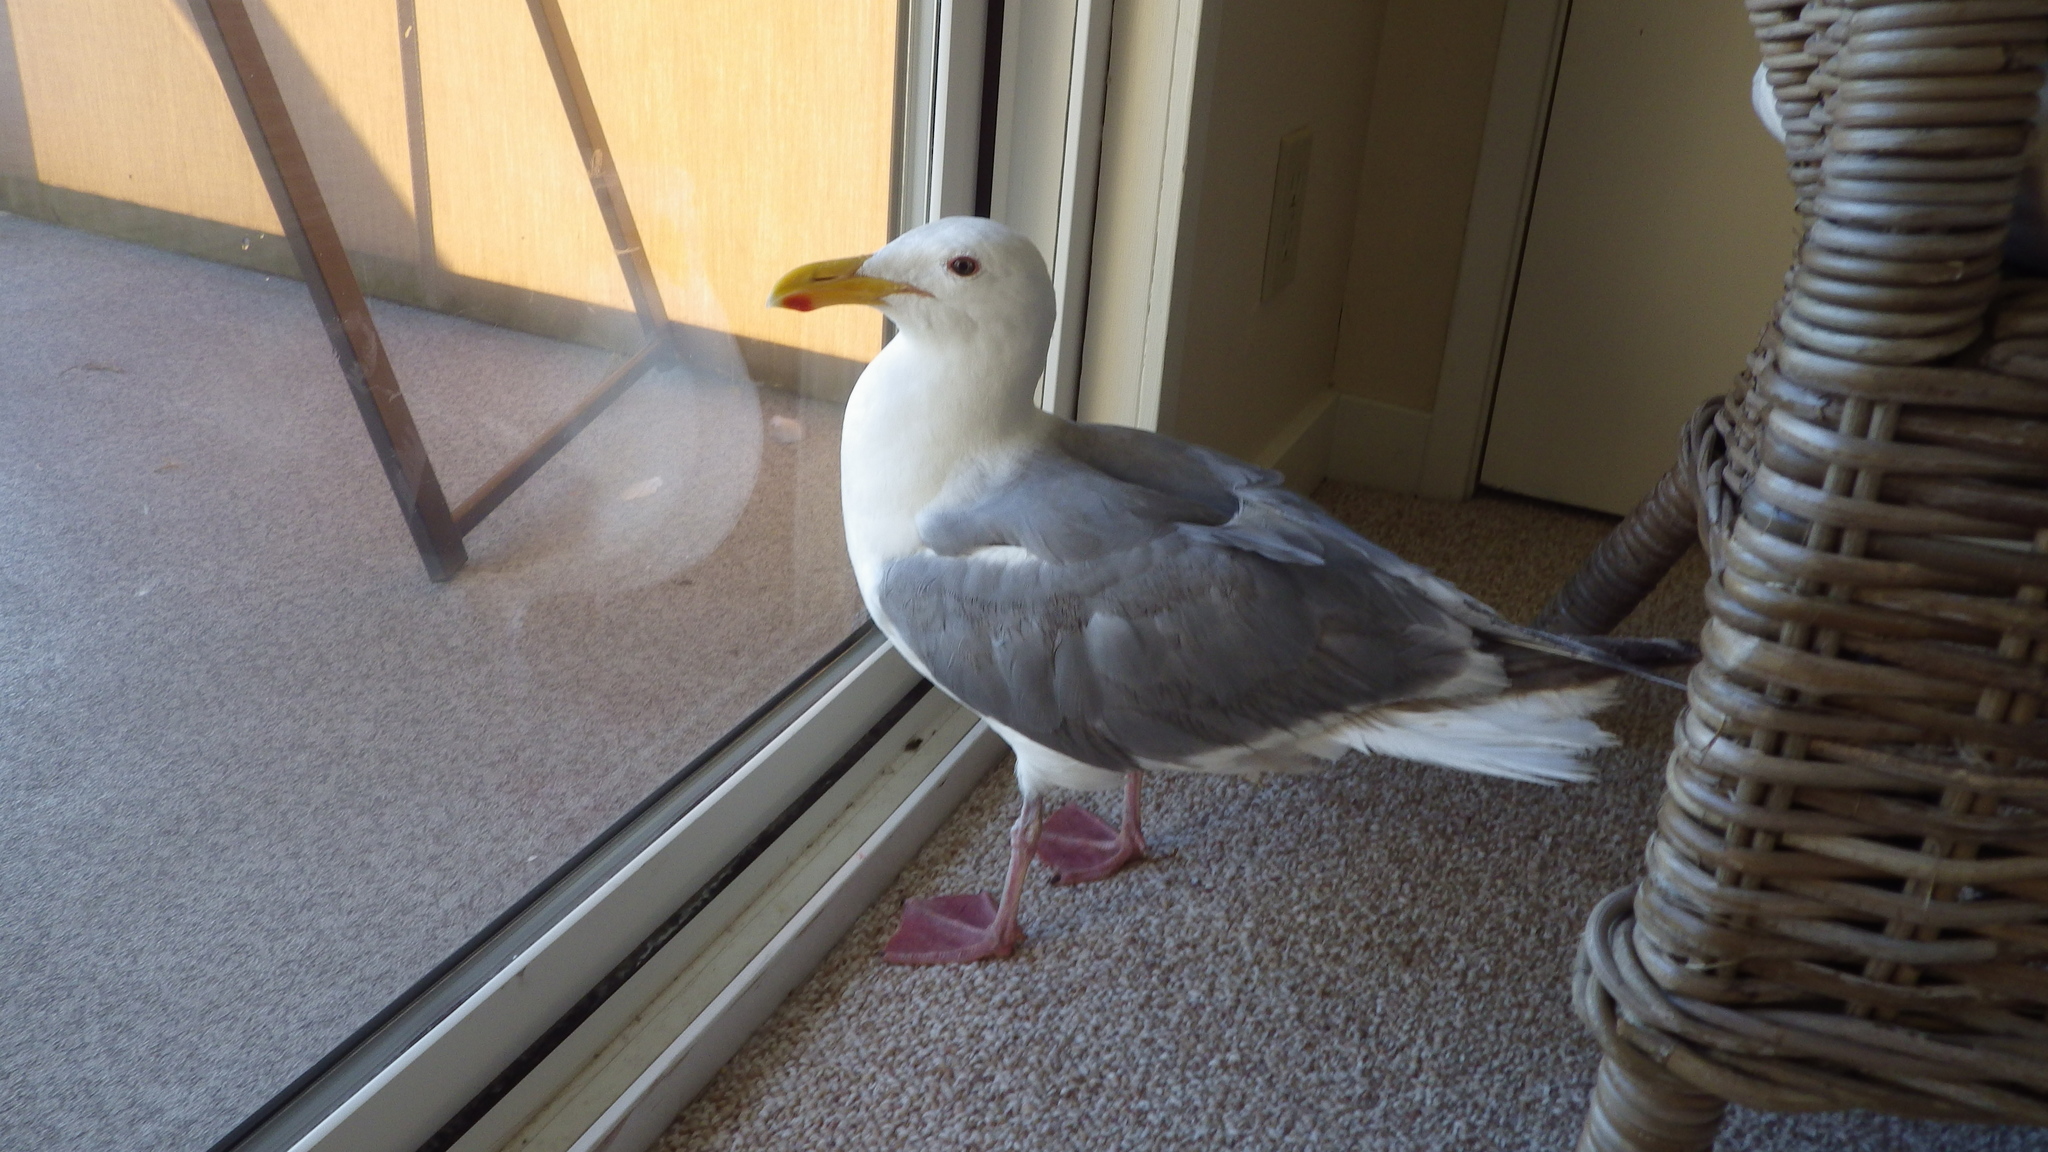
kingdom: Animalia
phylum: Chordata
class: Aves
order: Charadriiformes
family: Laridae
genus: Larus
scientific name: Larus
